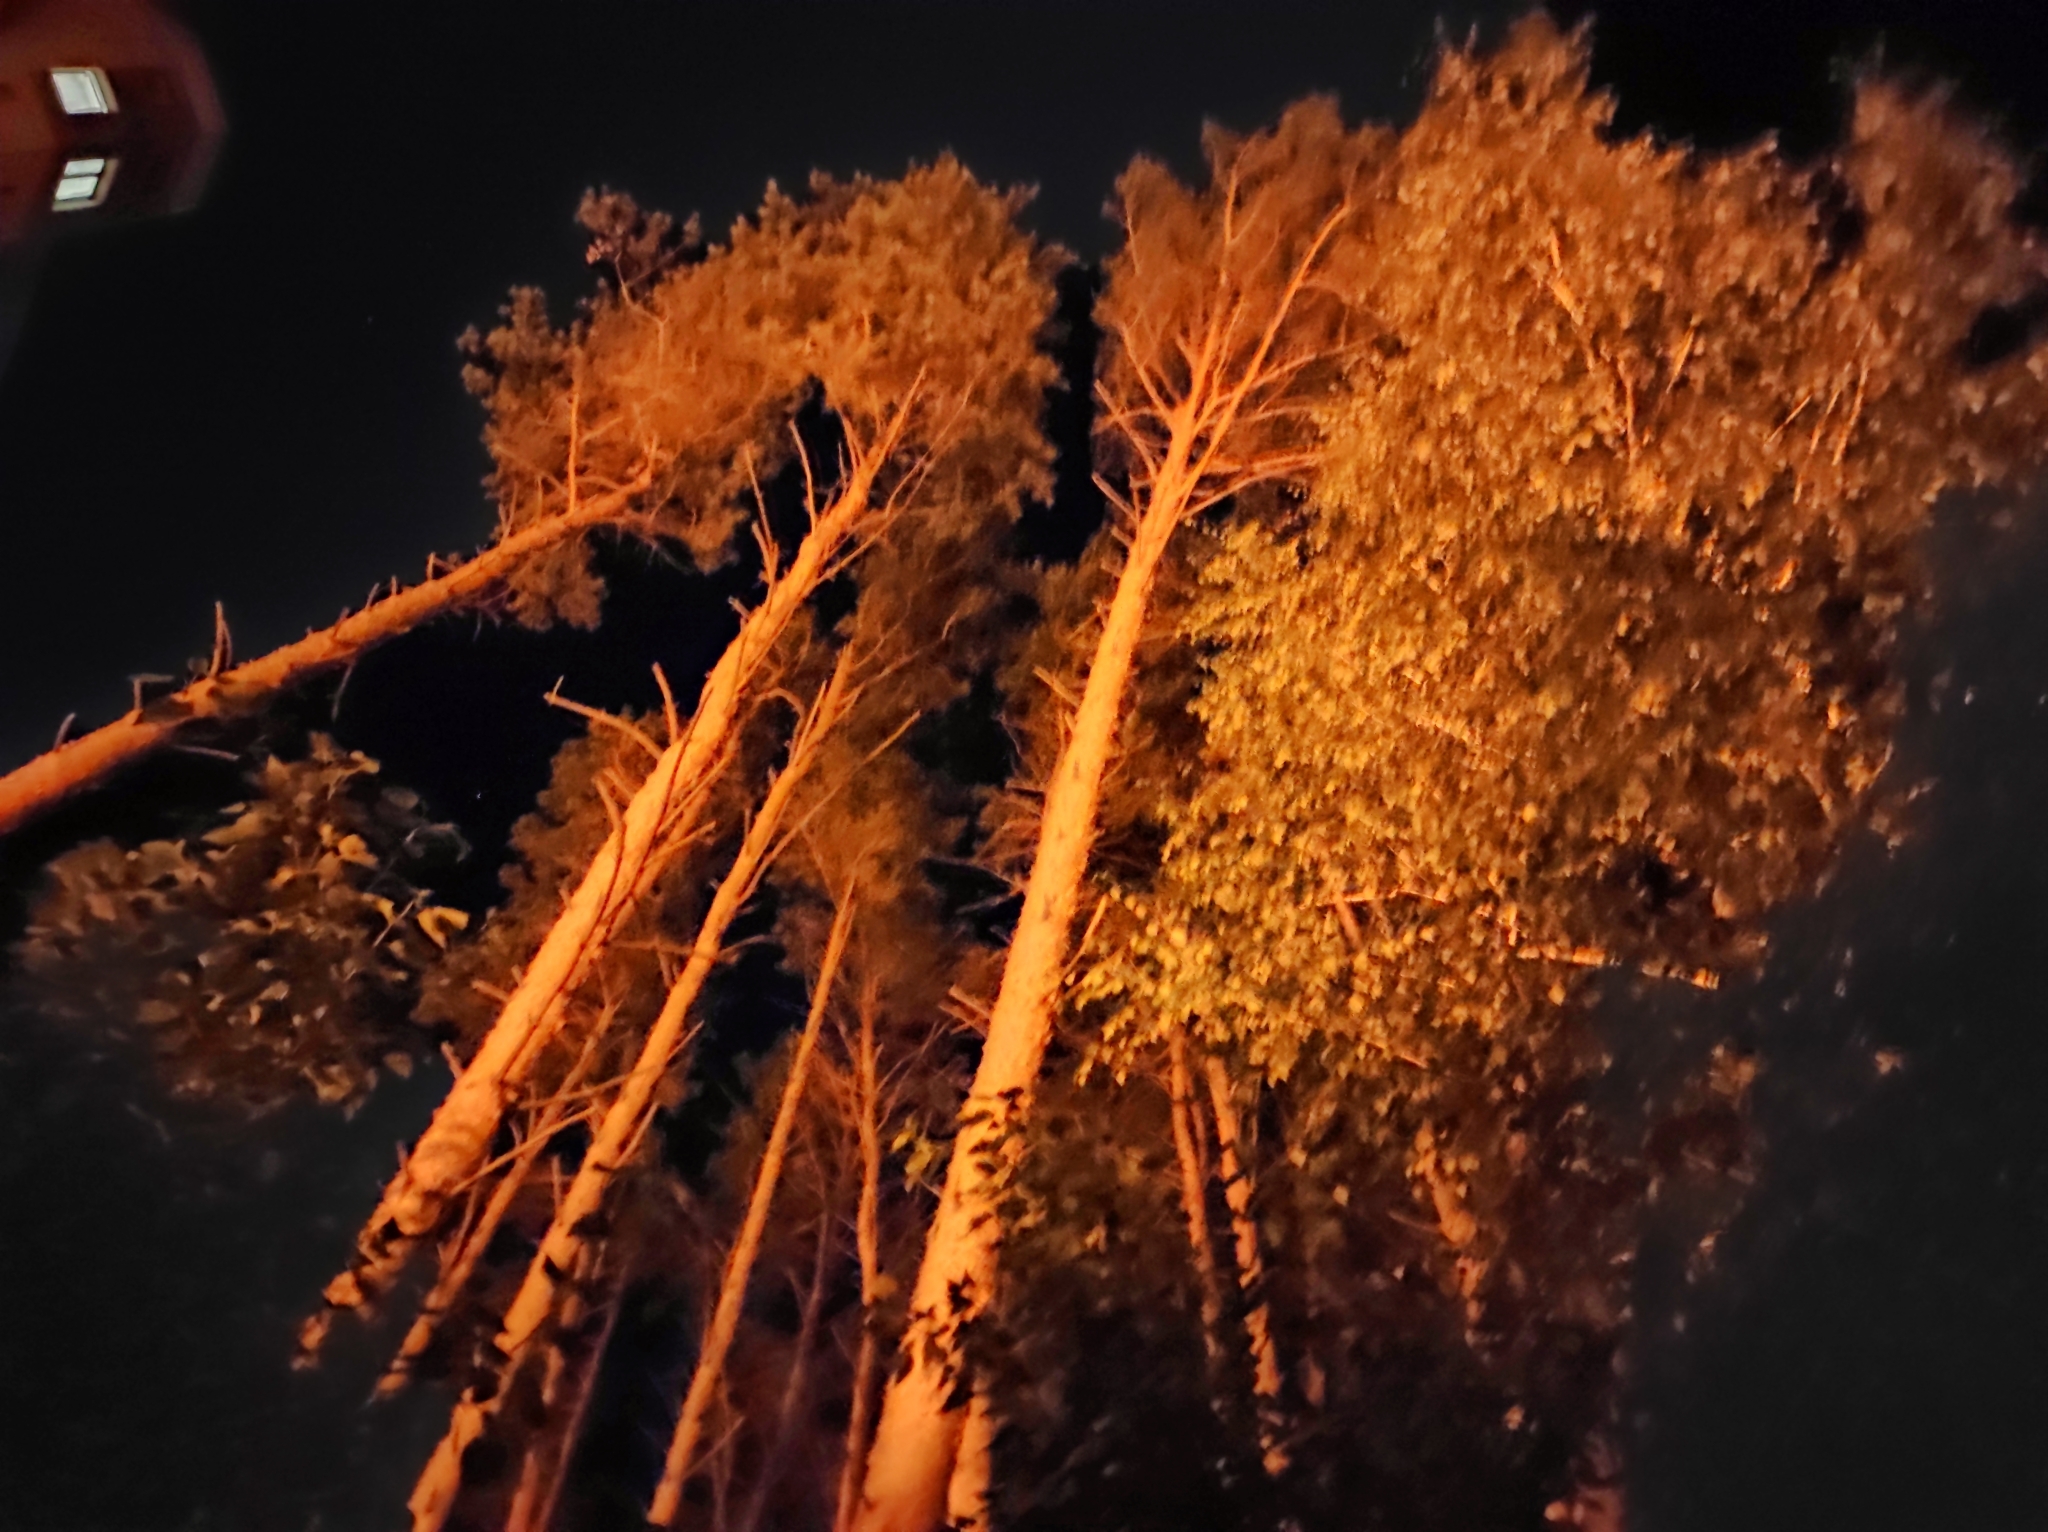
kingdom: Plantae
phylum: Tracheophyta
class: Pinopsida
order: Pinales
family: Pinaceae
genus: Pinus
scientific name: Pinus sylvestris
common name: Scots pine
